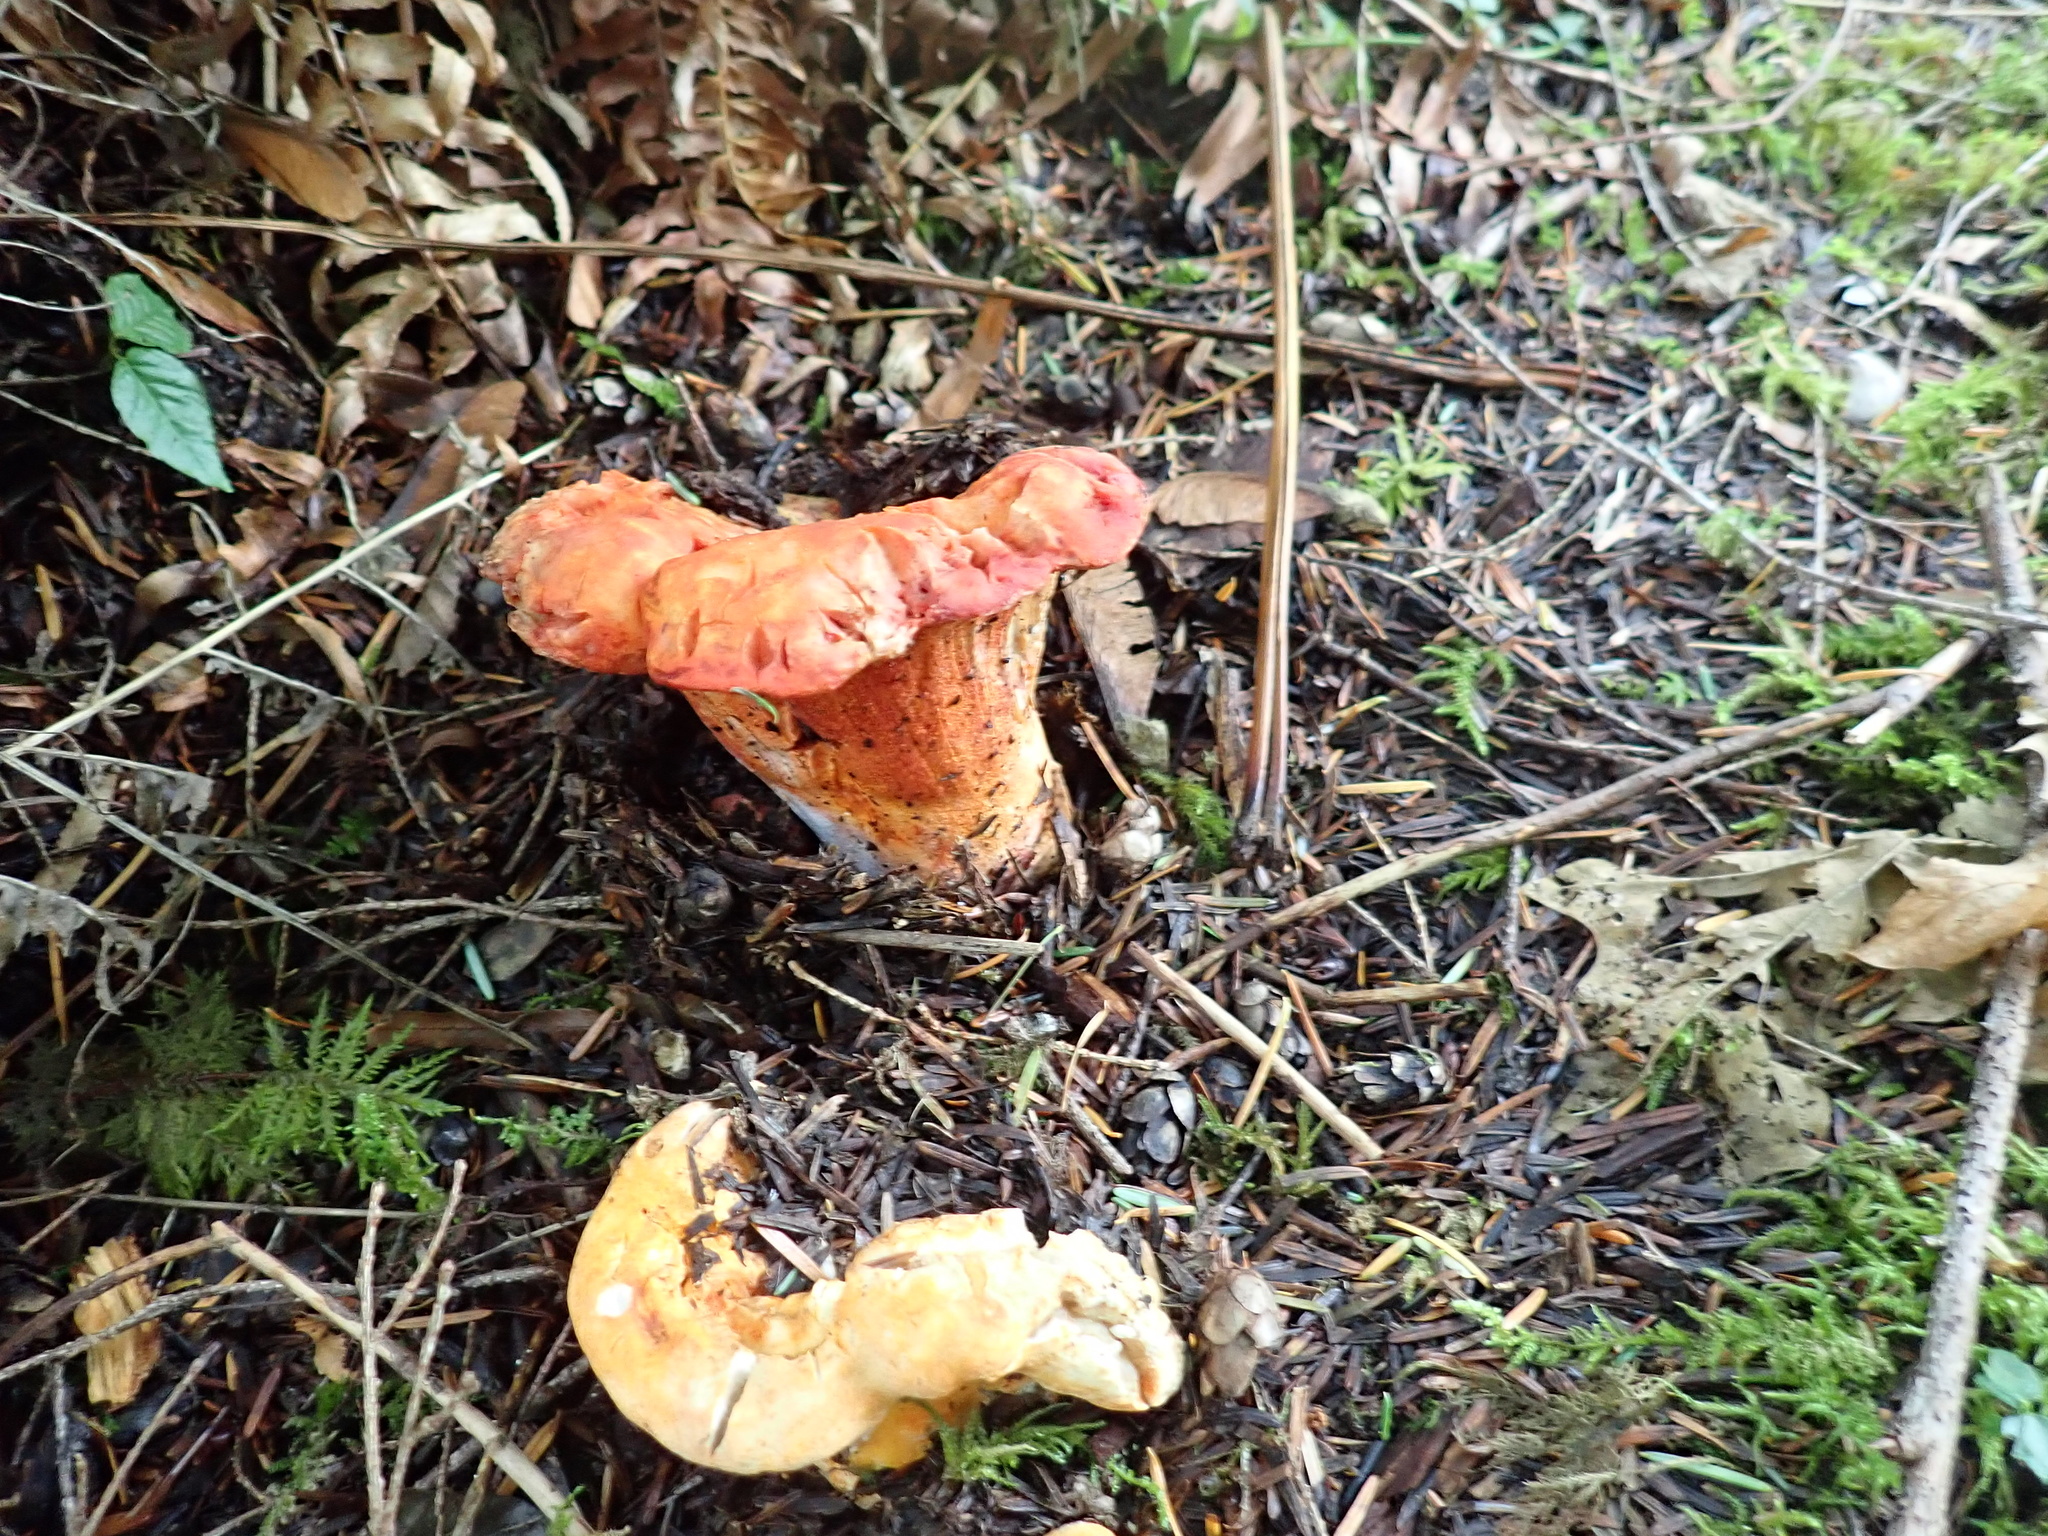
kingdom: Fungi
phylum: Ascomycota
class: Sordariomycetes
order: Hypocreales
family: Hypocreaceae
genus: Hypomyces
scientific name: Hypomyces lactifluorum
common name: Lobster mushroom
